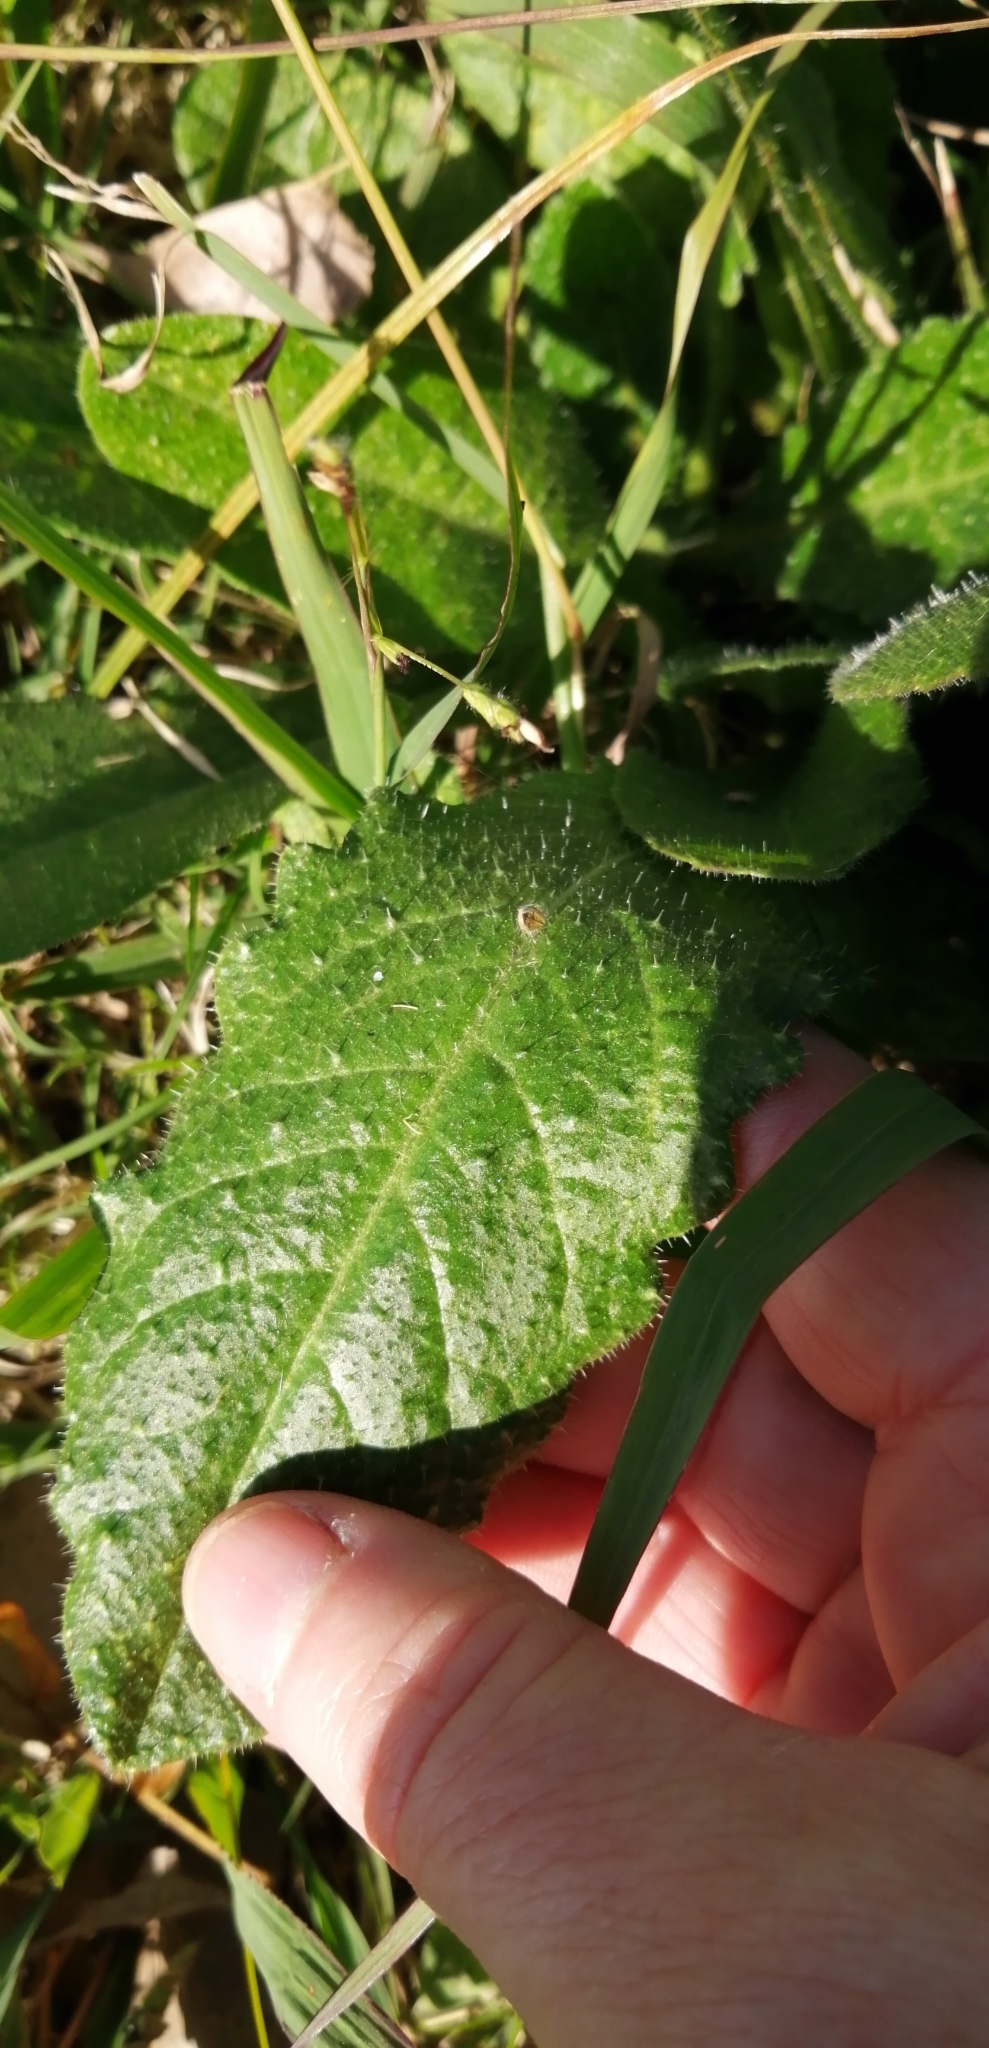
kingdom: Plantae
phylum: Tracheophyta
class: Magnoliopsida
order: Asterales
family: Asteraceae
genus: Helminthotheca
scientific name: Helminthotheca echioides
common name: Ox-tongue
